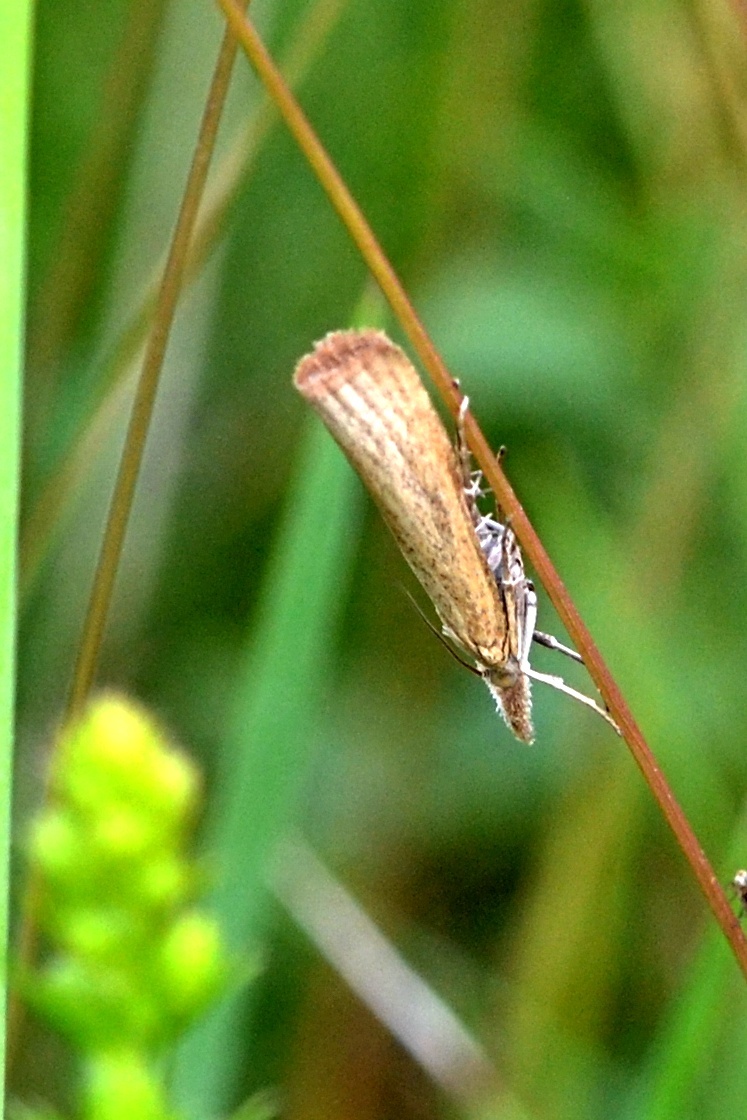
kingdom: Animalia
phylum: Arthropoda
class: Insecta
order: Lepidoptera
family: Crambidae
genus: Pediasia
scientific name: Pediasia luteella
